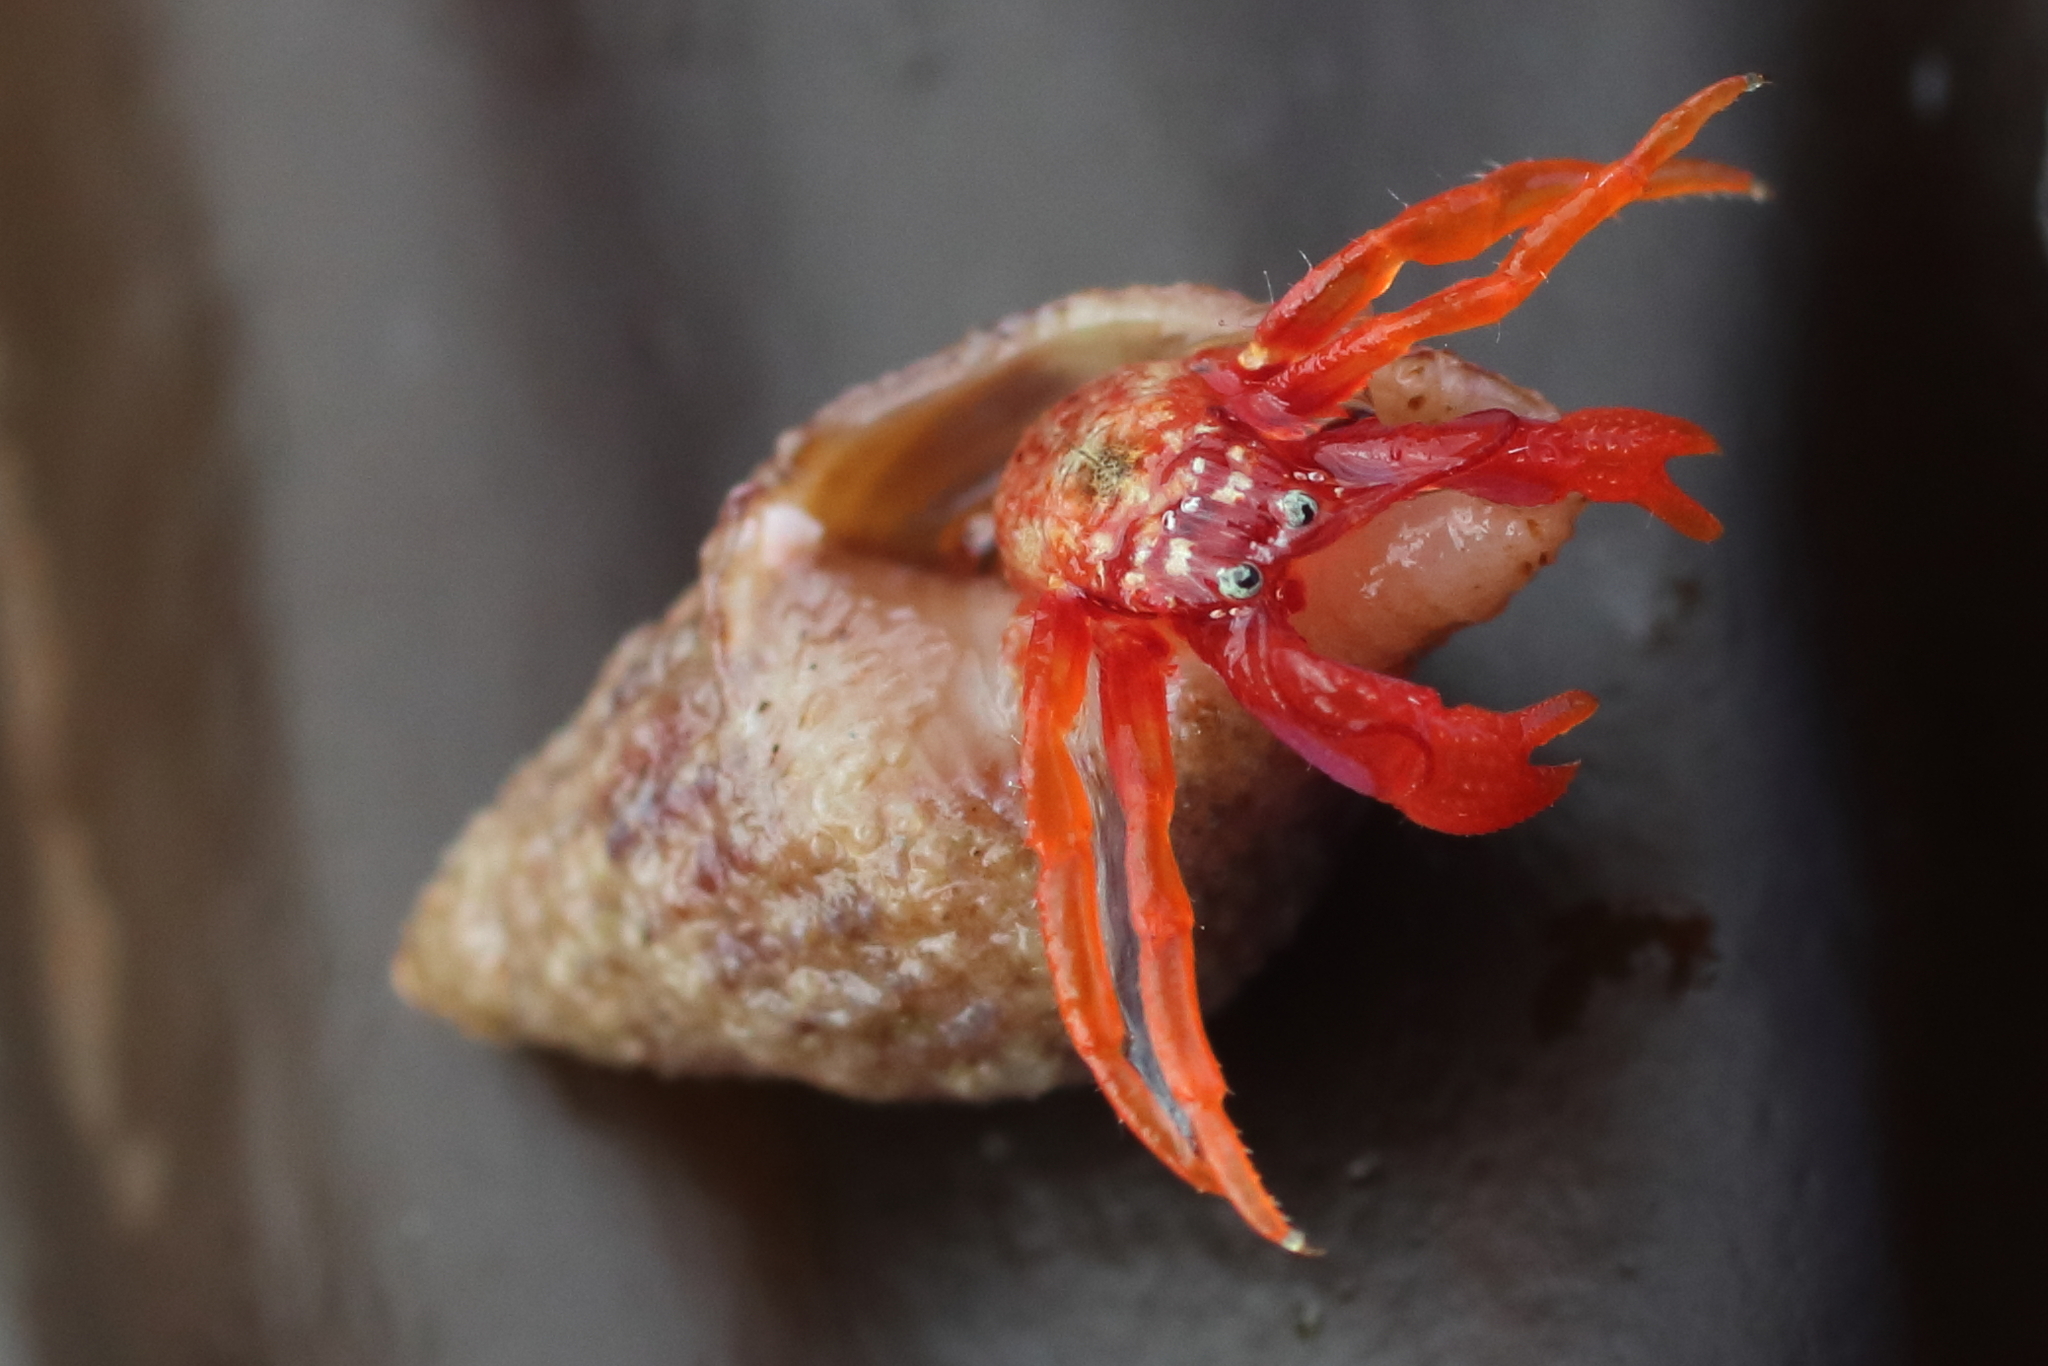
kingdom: Animalia
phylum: Arthropoda
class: Malacostraca
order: Decapoda
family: Paguridae
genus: Pagurus
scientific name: Pagurus hartae
